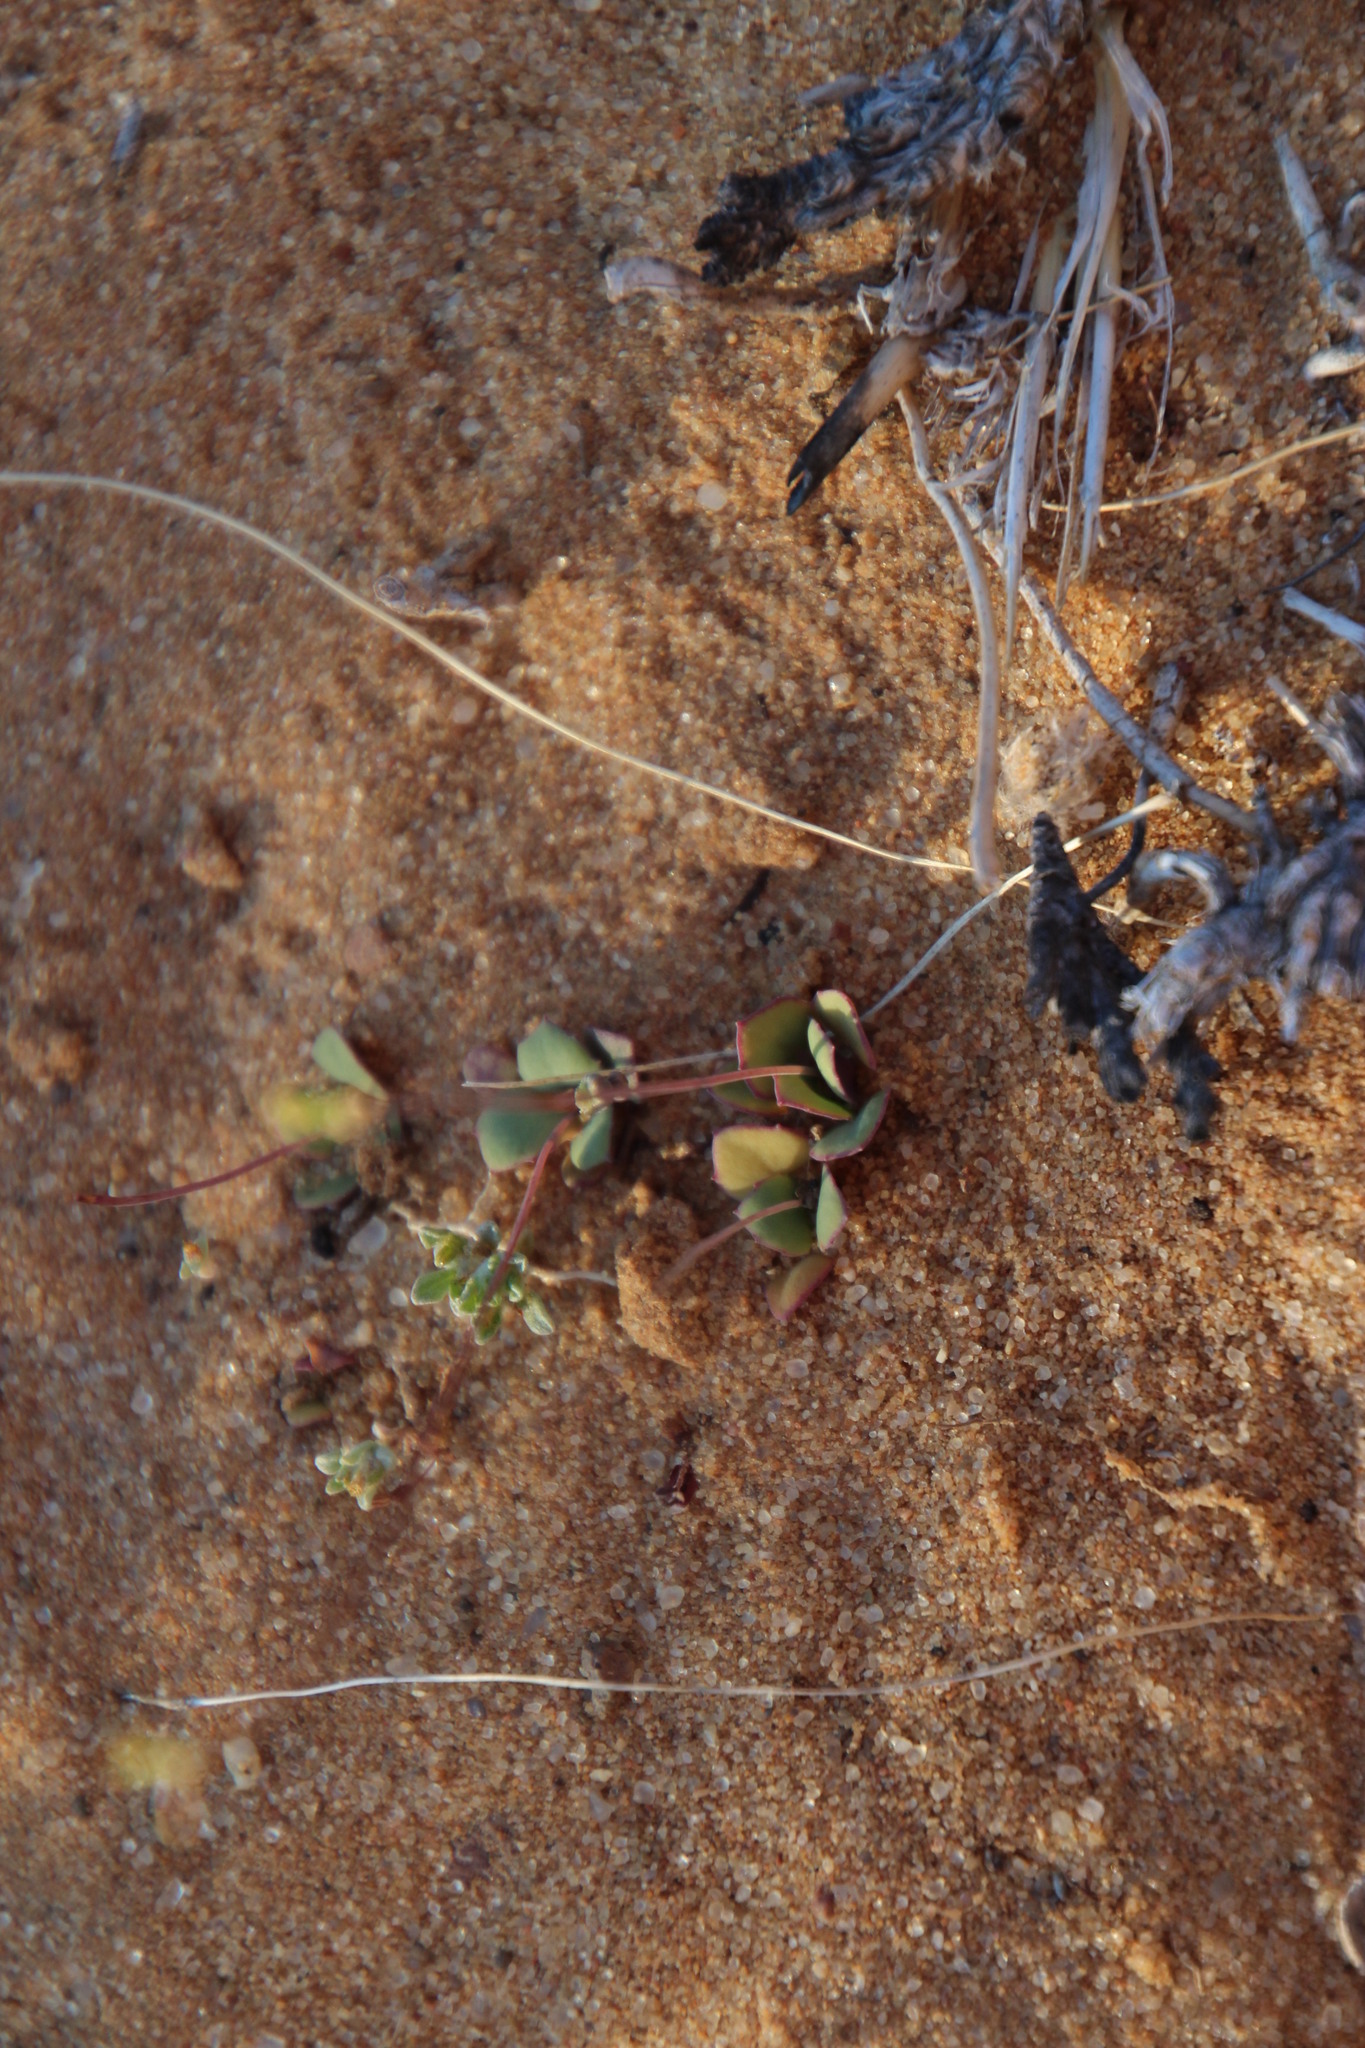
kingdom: Plantae
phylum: Tracheophyta
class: Magnoliopsida
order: Asterales
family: Asteraceae
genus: Gymnodiscus
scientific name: Gymnodiscus capillaris
